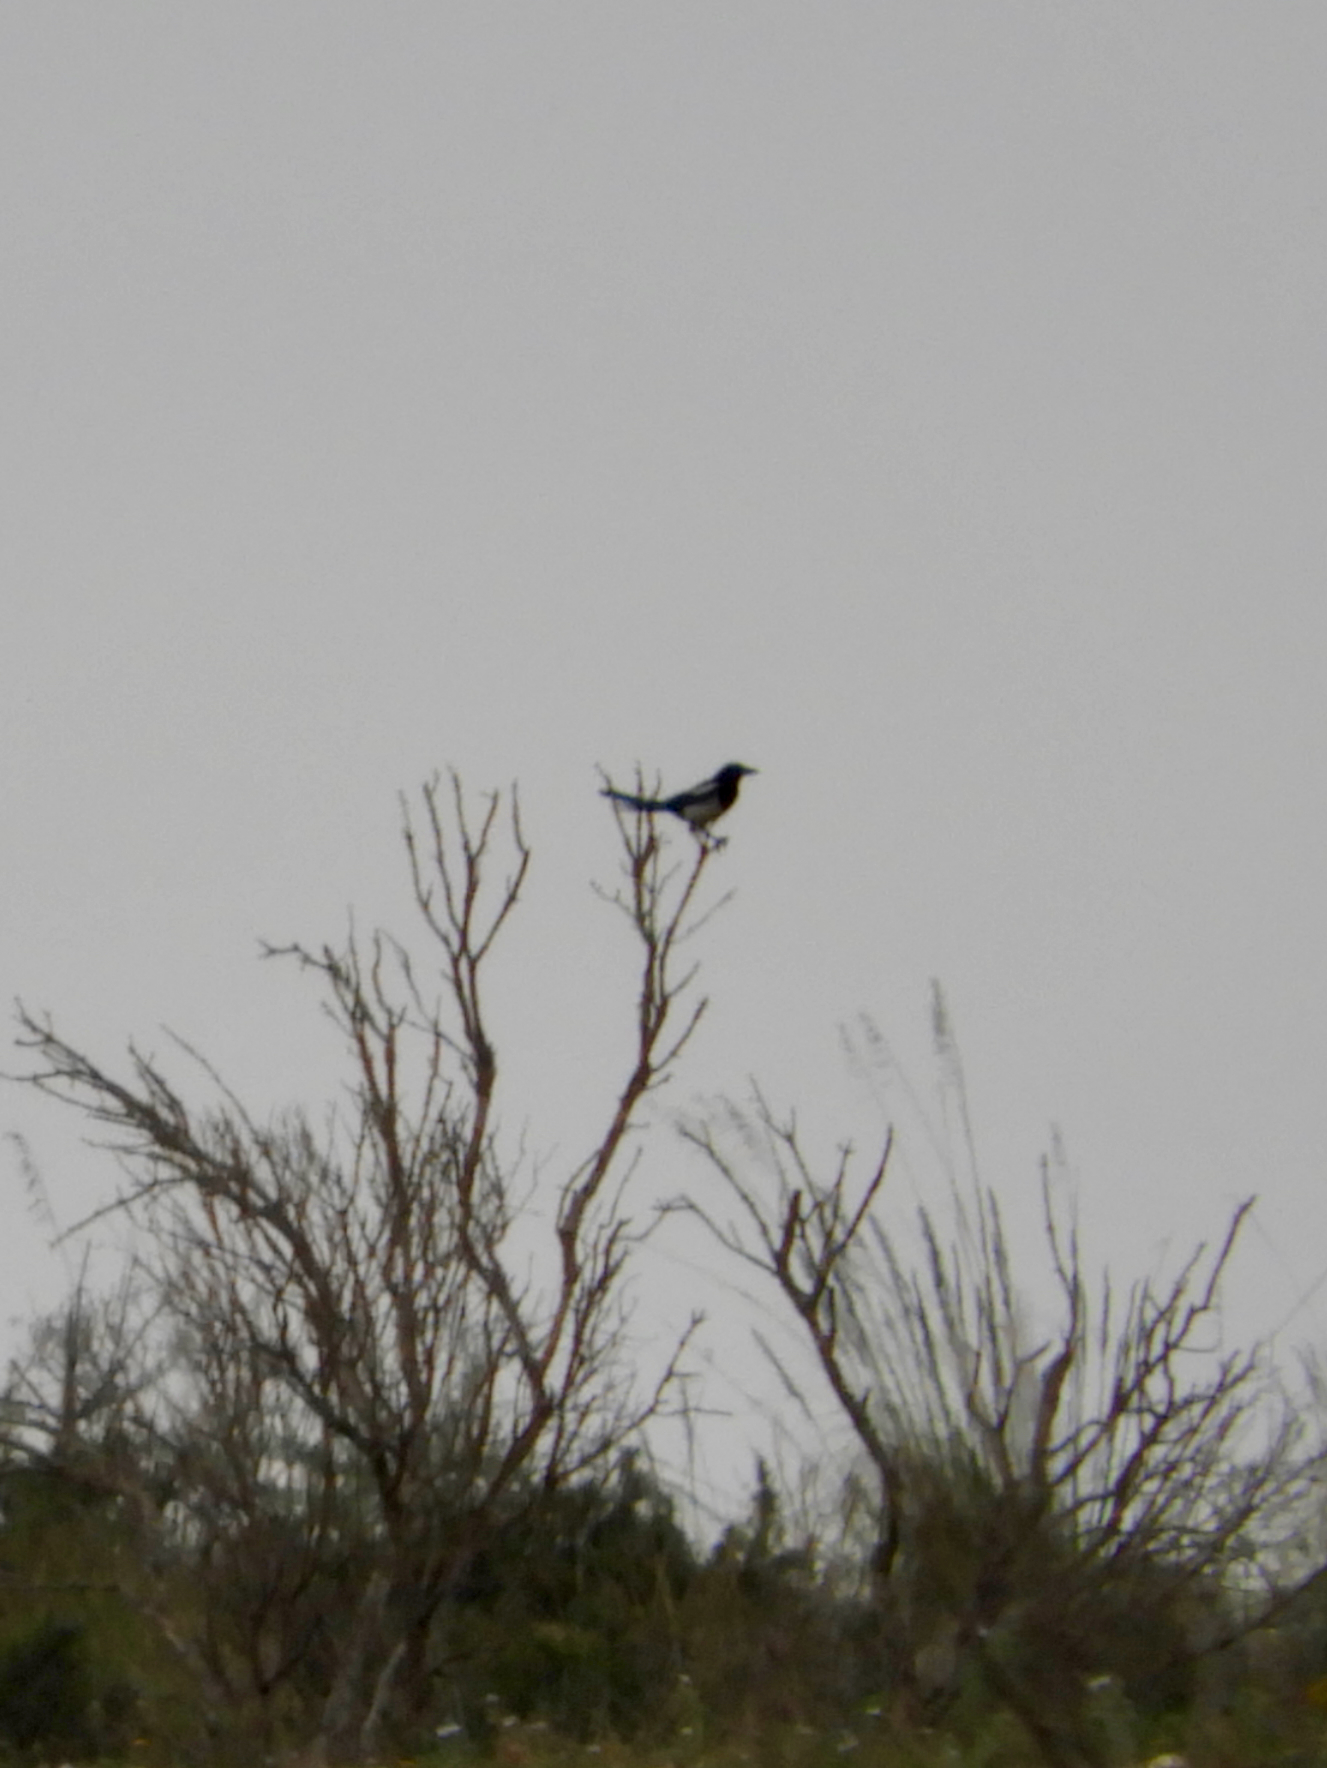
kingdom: Animalia
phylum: Chordata
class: Aves
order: Passeriformes
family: Corvidae
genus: Pica
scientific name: Pica pica
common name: Eurasian magpie
